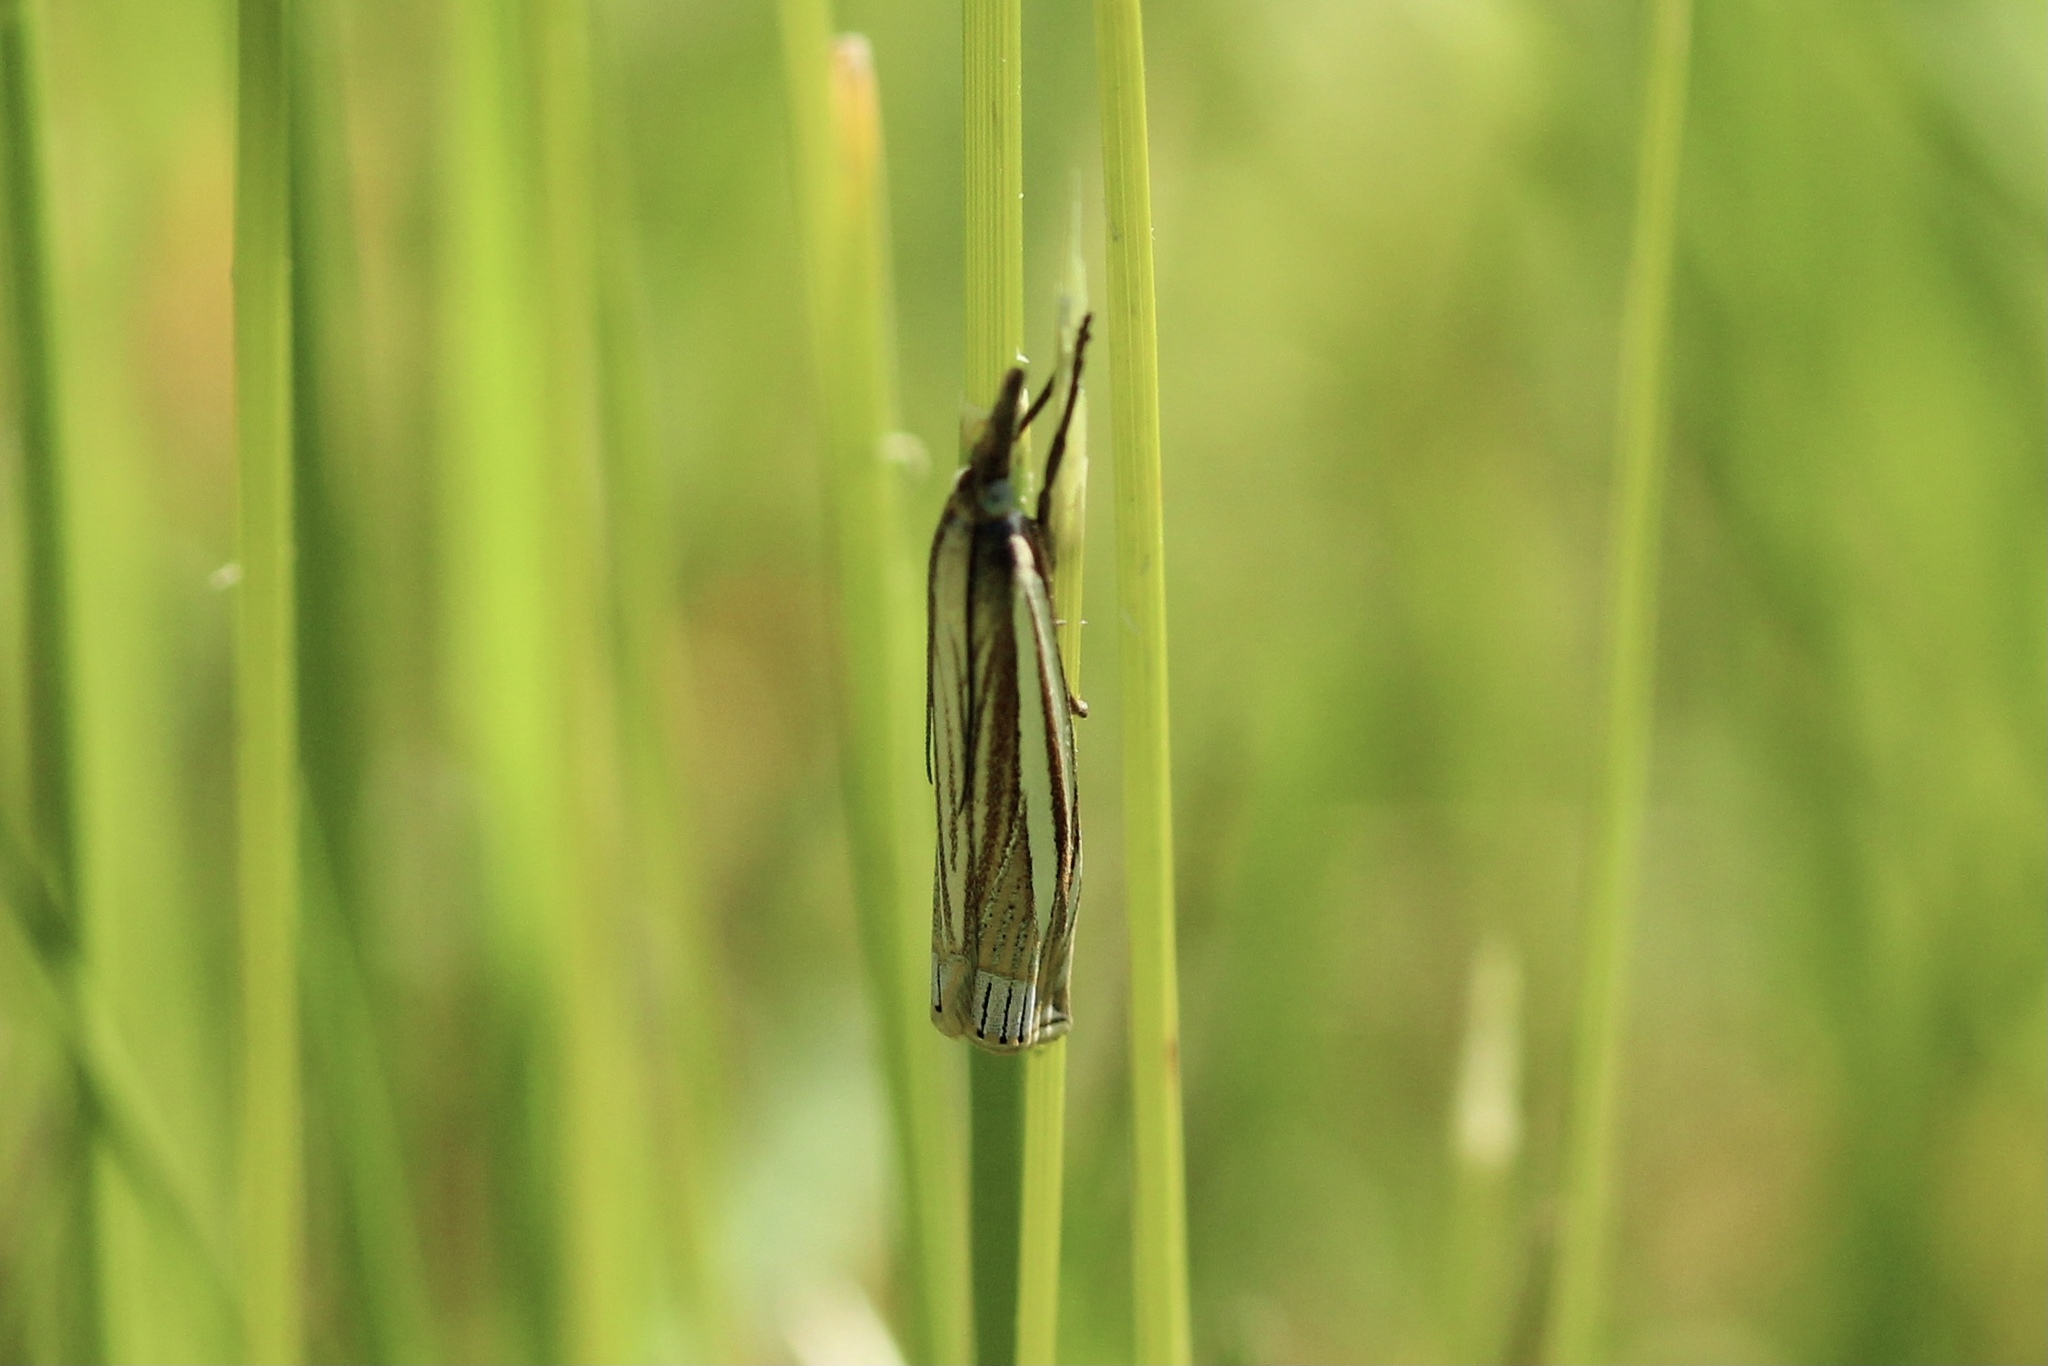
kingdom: Animalia
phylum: Arthropoda
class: Insecta
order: Lepidoptera
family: Crambidae
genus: Crambus
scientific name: Crambus laqueatellus
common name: Eastern grass-veneer
